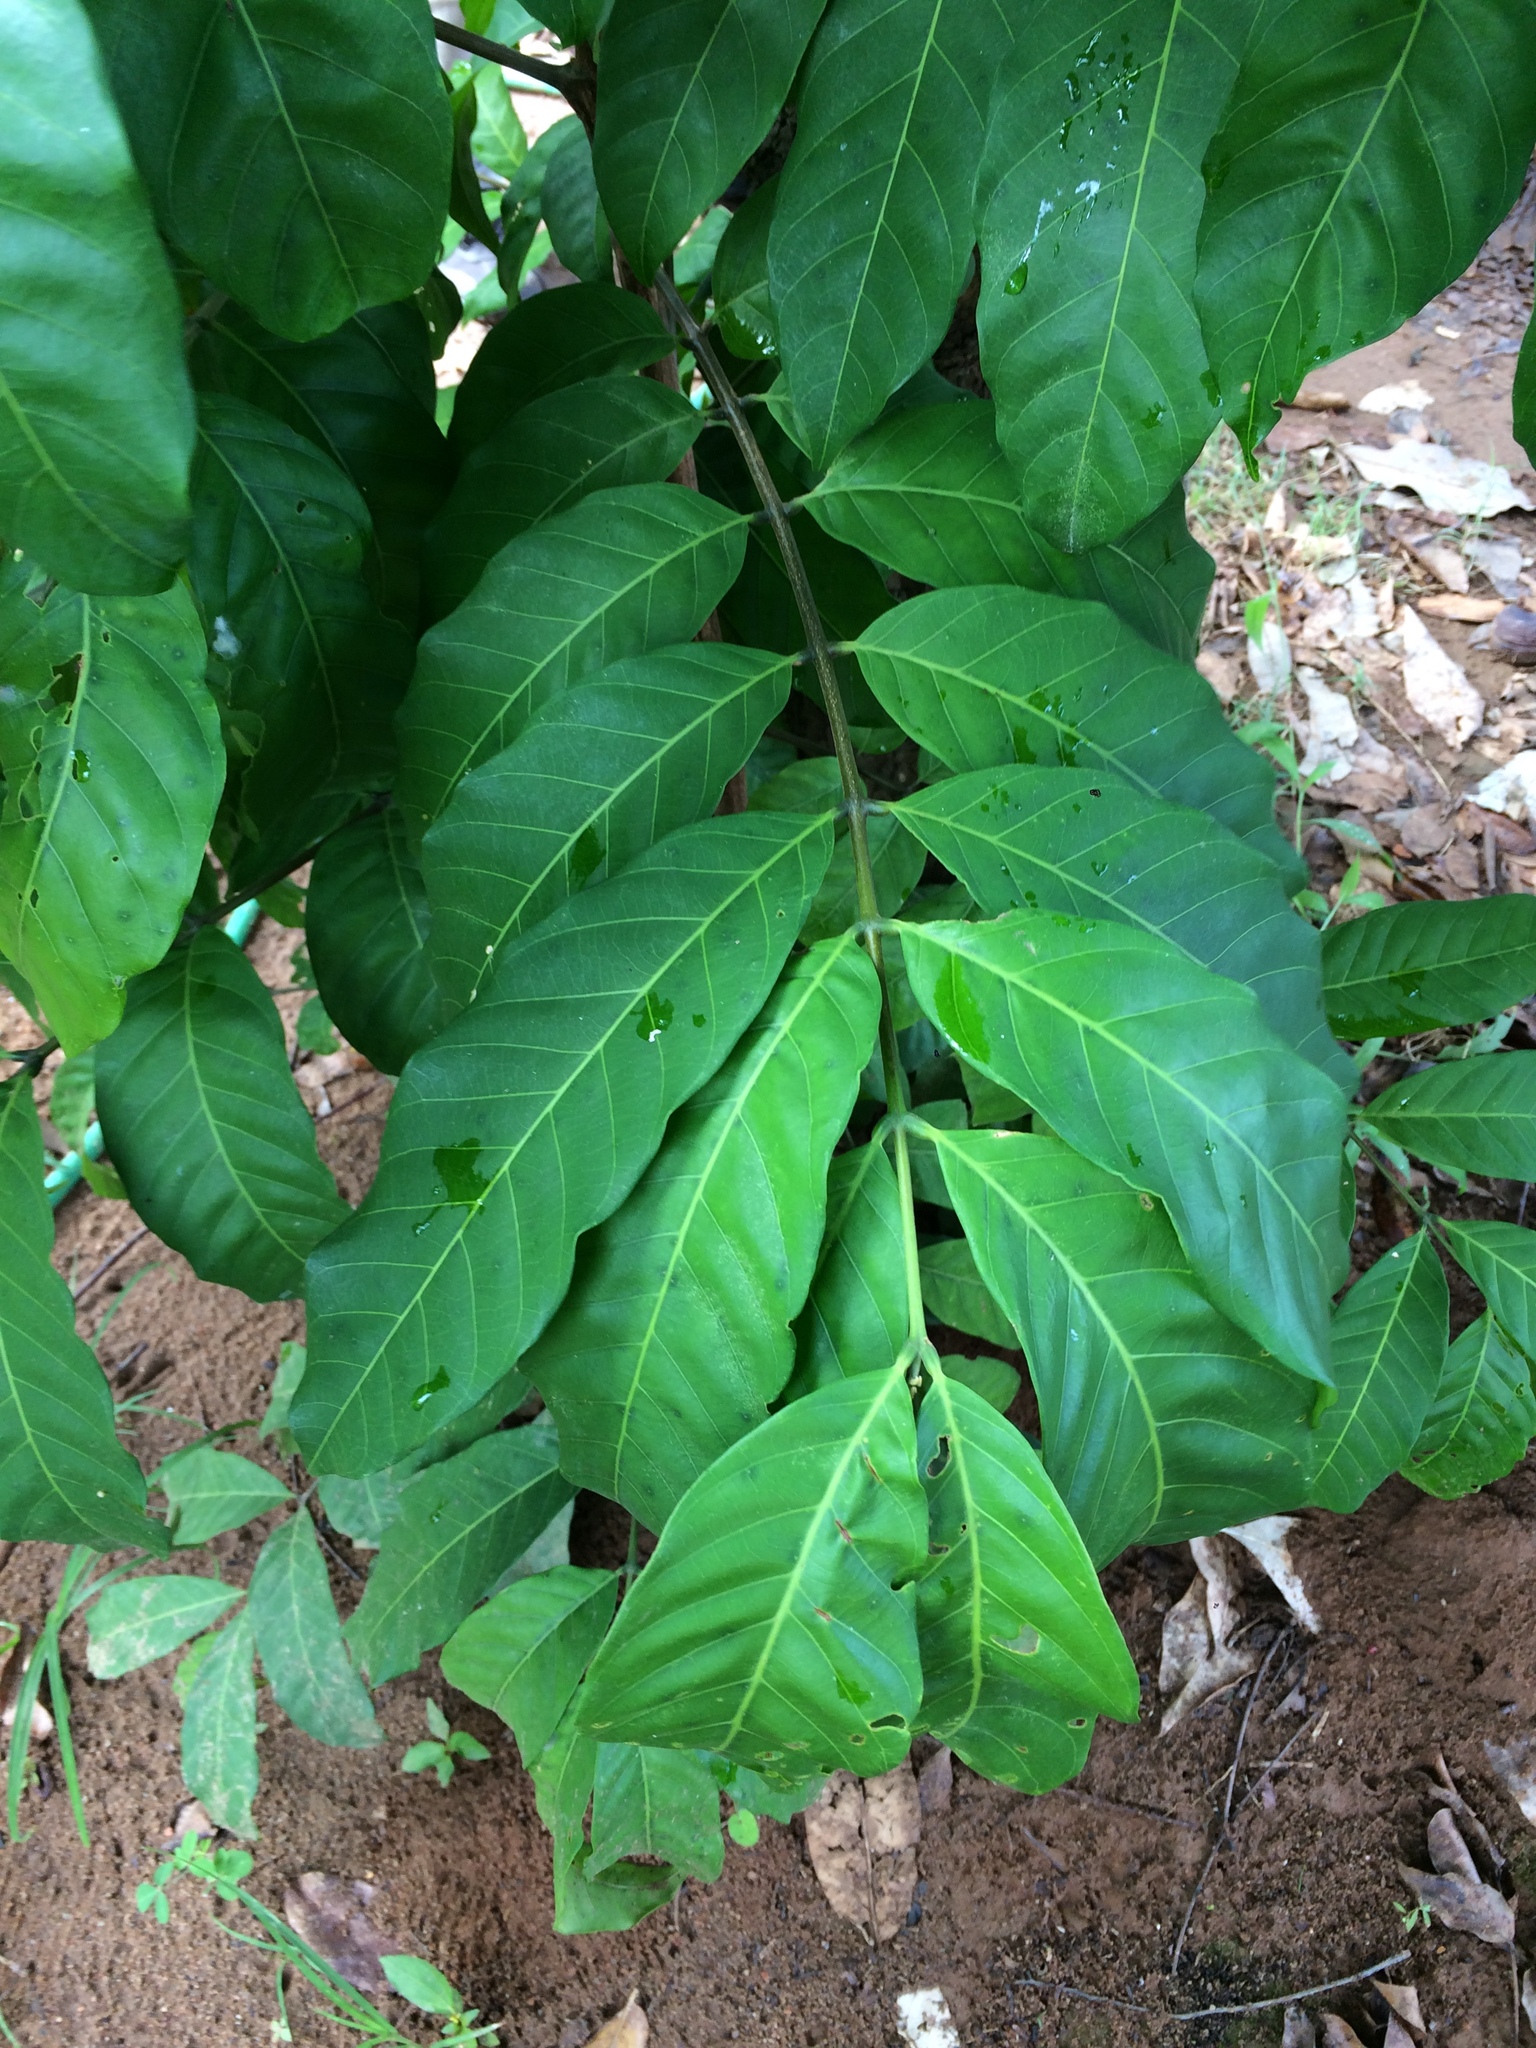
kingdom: Plantae
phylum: Tracheophyta
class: Magnoliopsida
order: Sapindales
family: Meliaceae
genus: Guarea
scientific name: Guarea guidonia
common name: American muskwood
